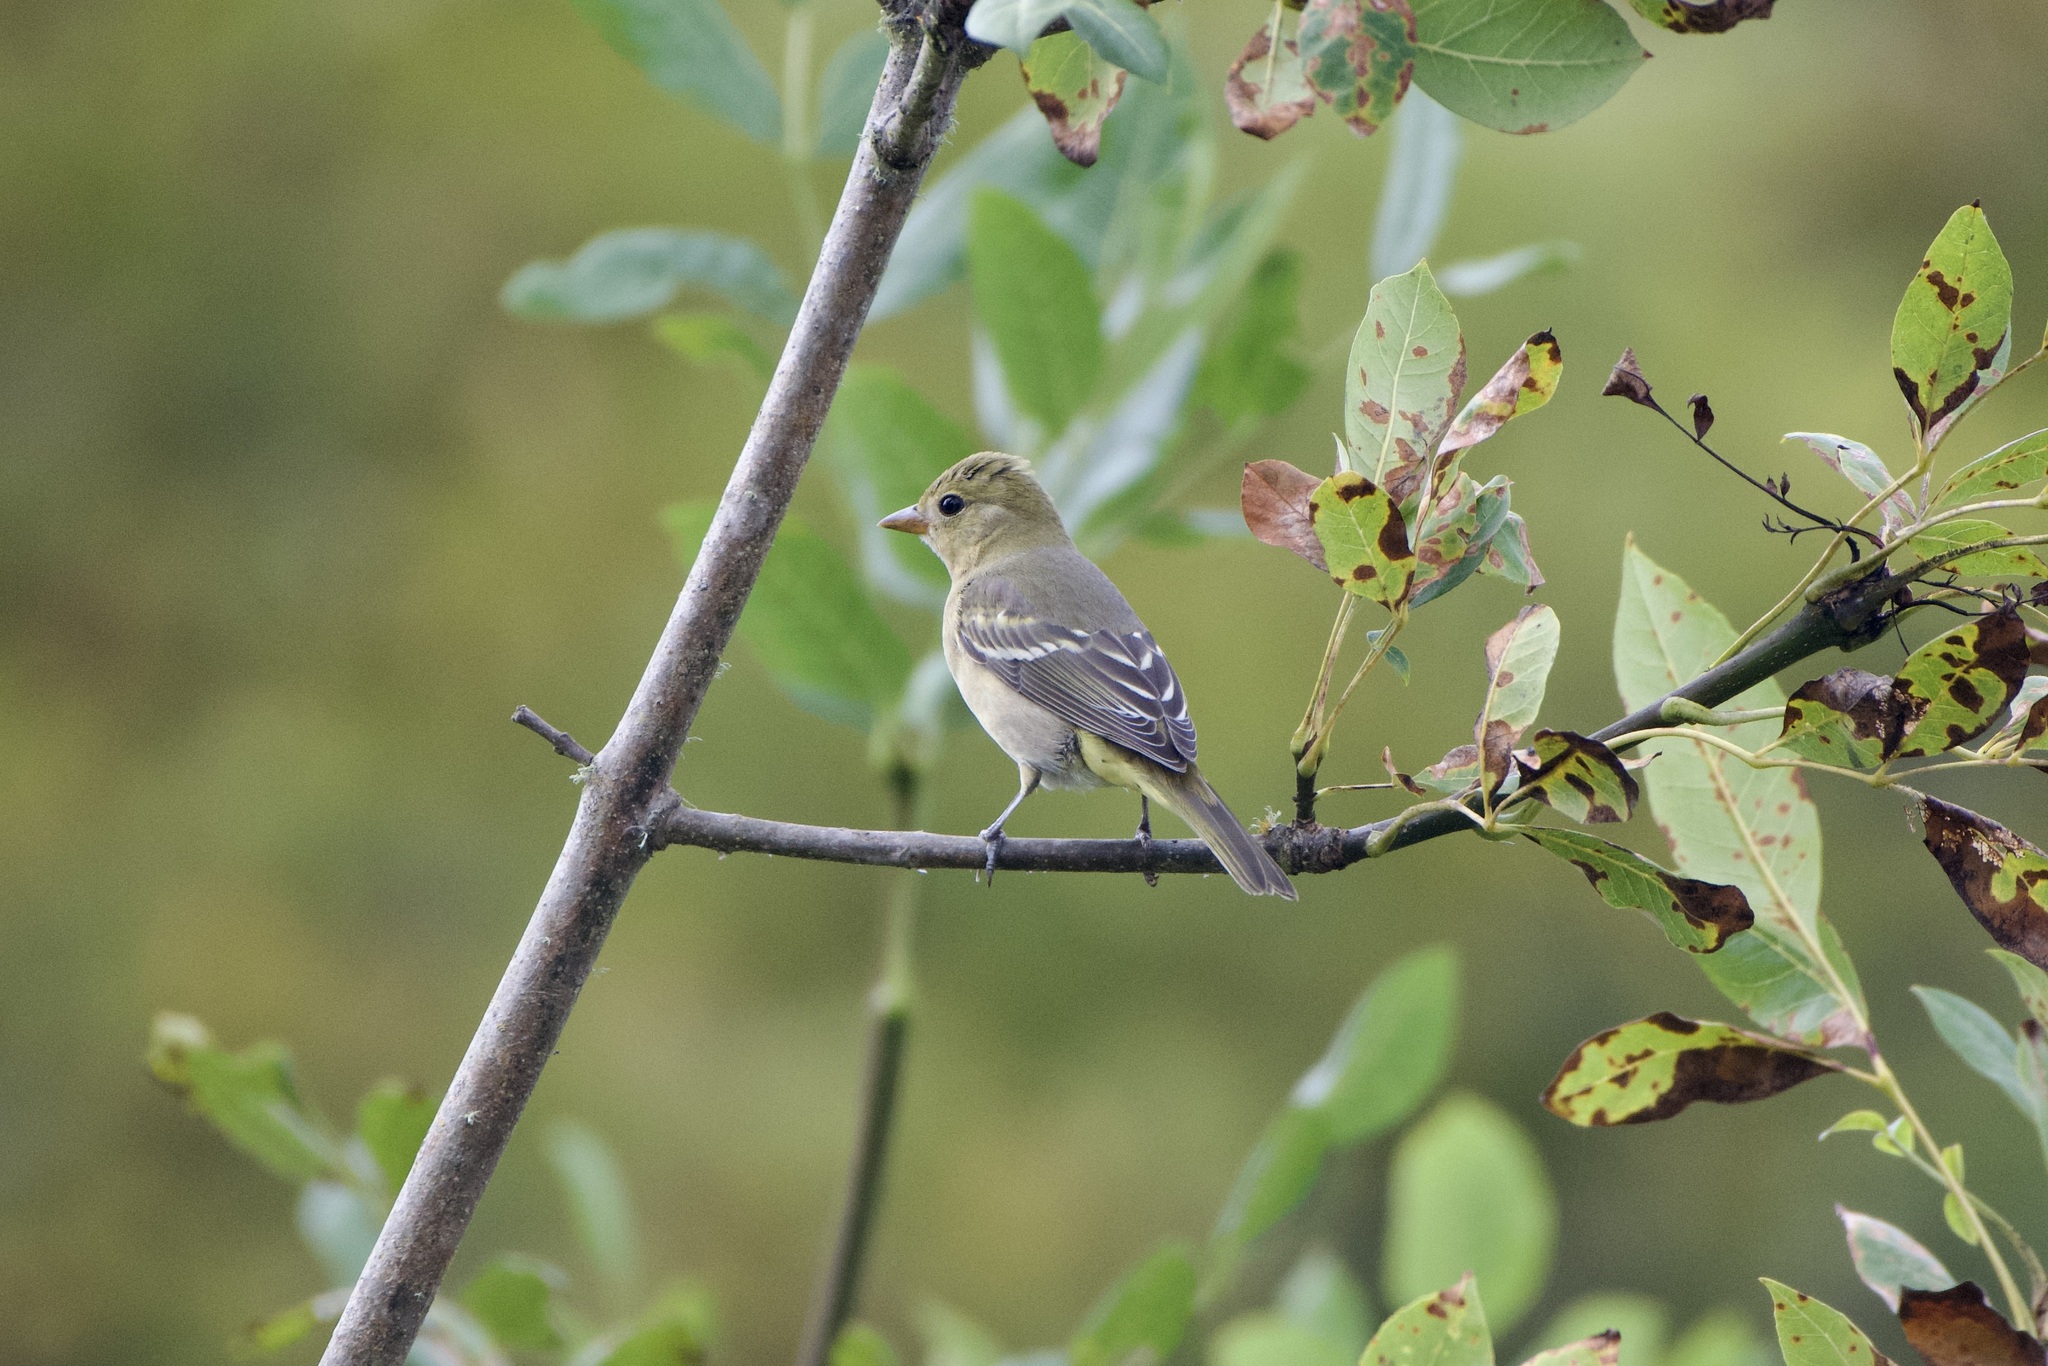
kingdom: Animalia
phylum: Chordata
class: Aves
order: Passeriformes
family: Cardinalidae
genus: Piranga
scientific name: Piranga ludoviciana
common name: Western tanager
